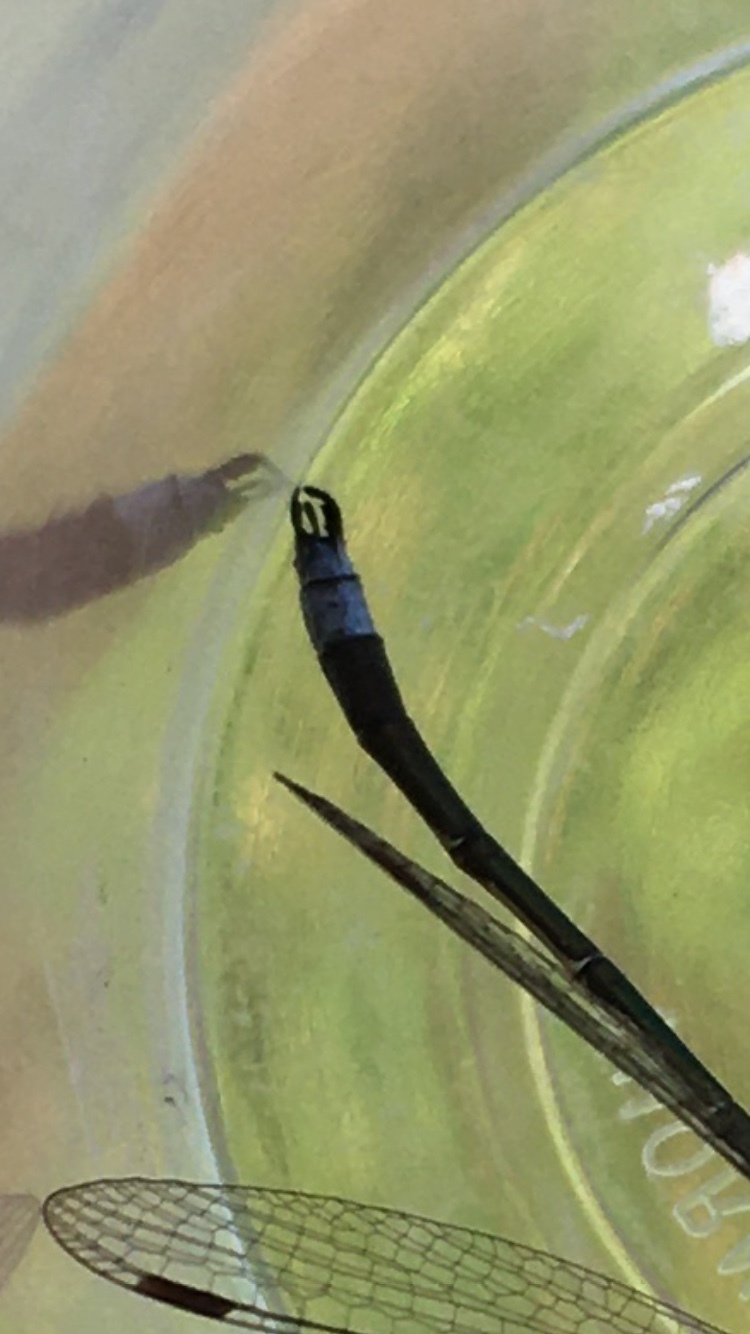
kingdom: Animalia
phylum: Arthropoda
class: Insecta
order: Odonata
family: Lestidae
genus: Lestes
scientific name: Lestes disjunctus
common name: Northern spreadwing
